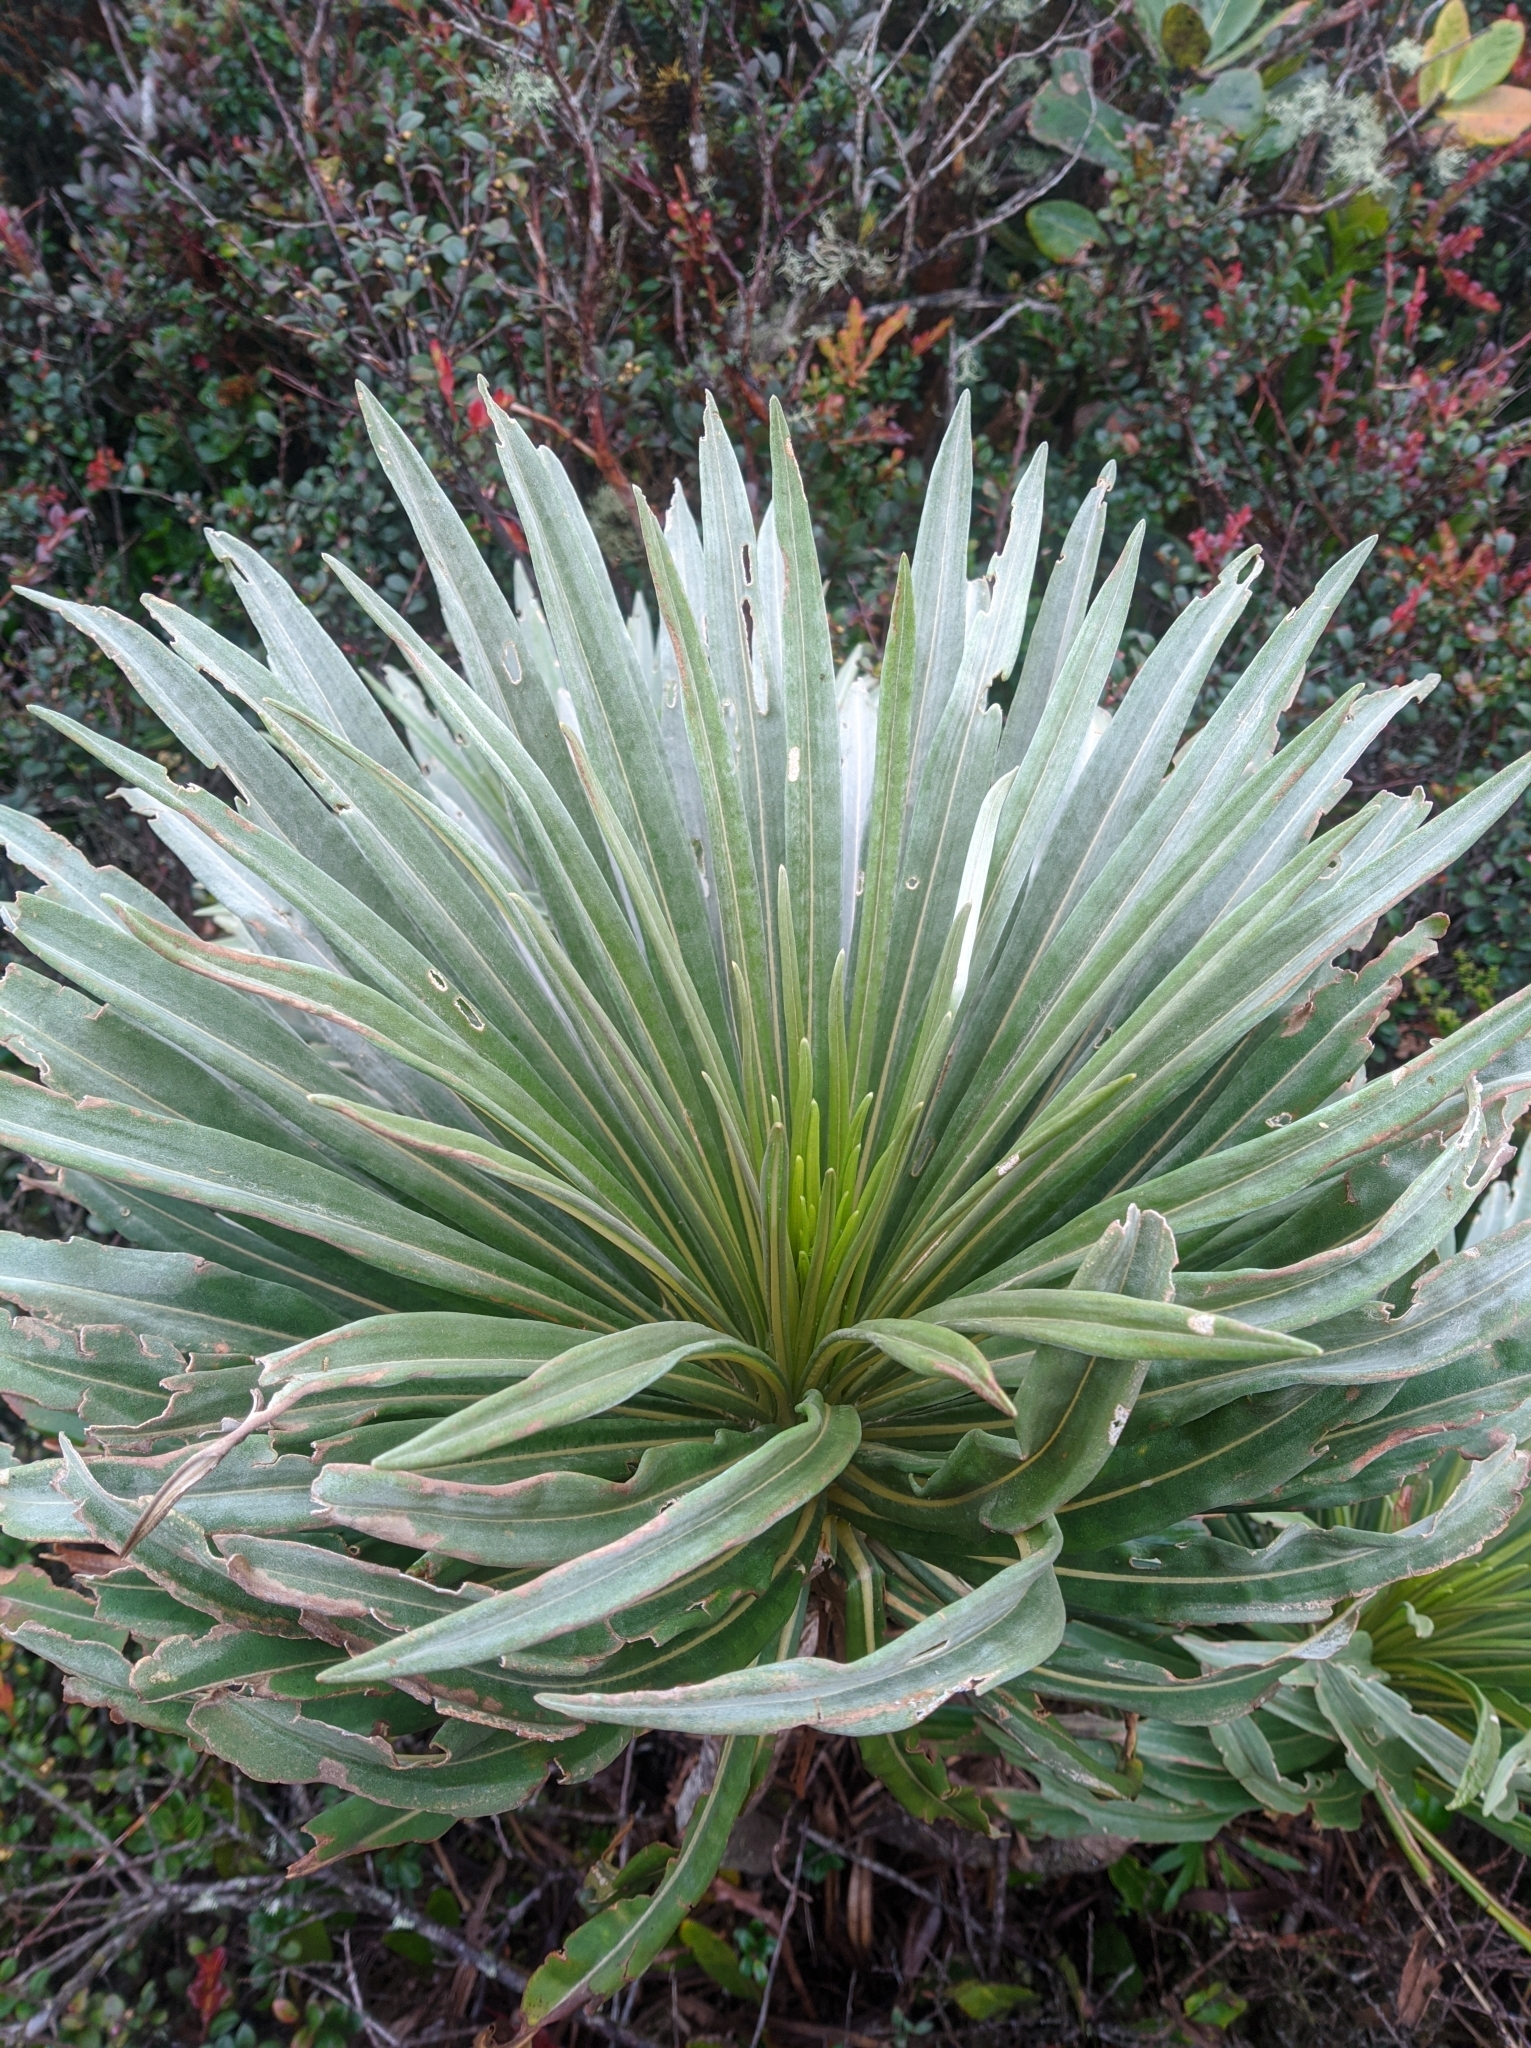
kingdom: Plantae
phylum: Tracheophyta
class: Magnoliopsida
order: Asterales
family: Asteraceae
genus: Espeletia
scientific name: Espeletia paltonioides
